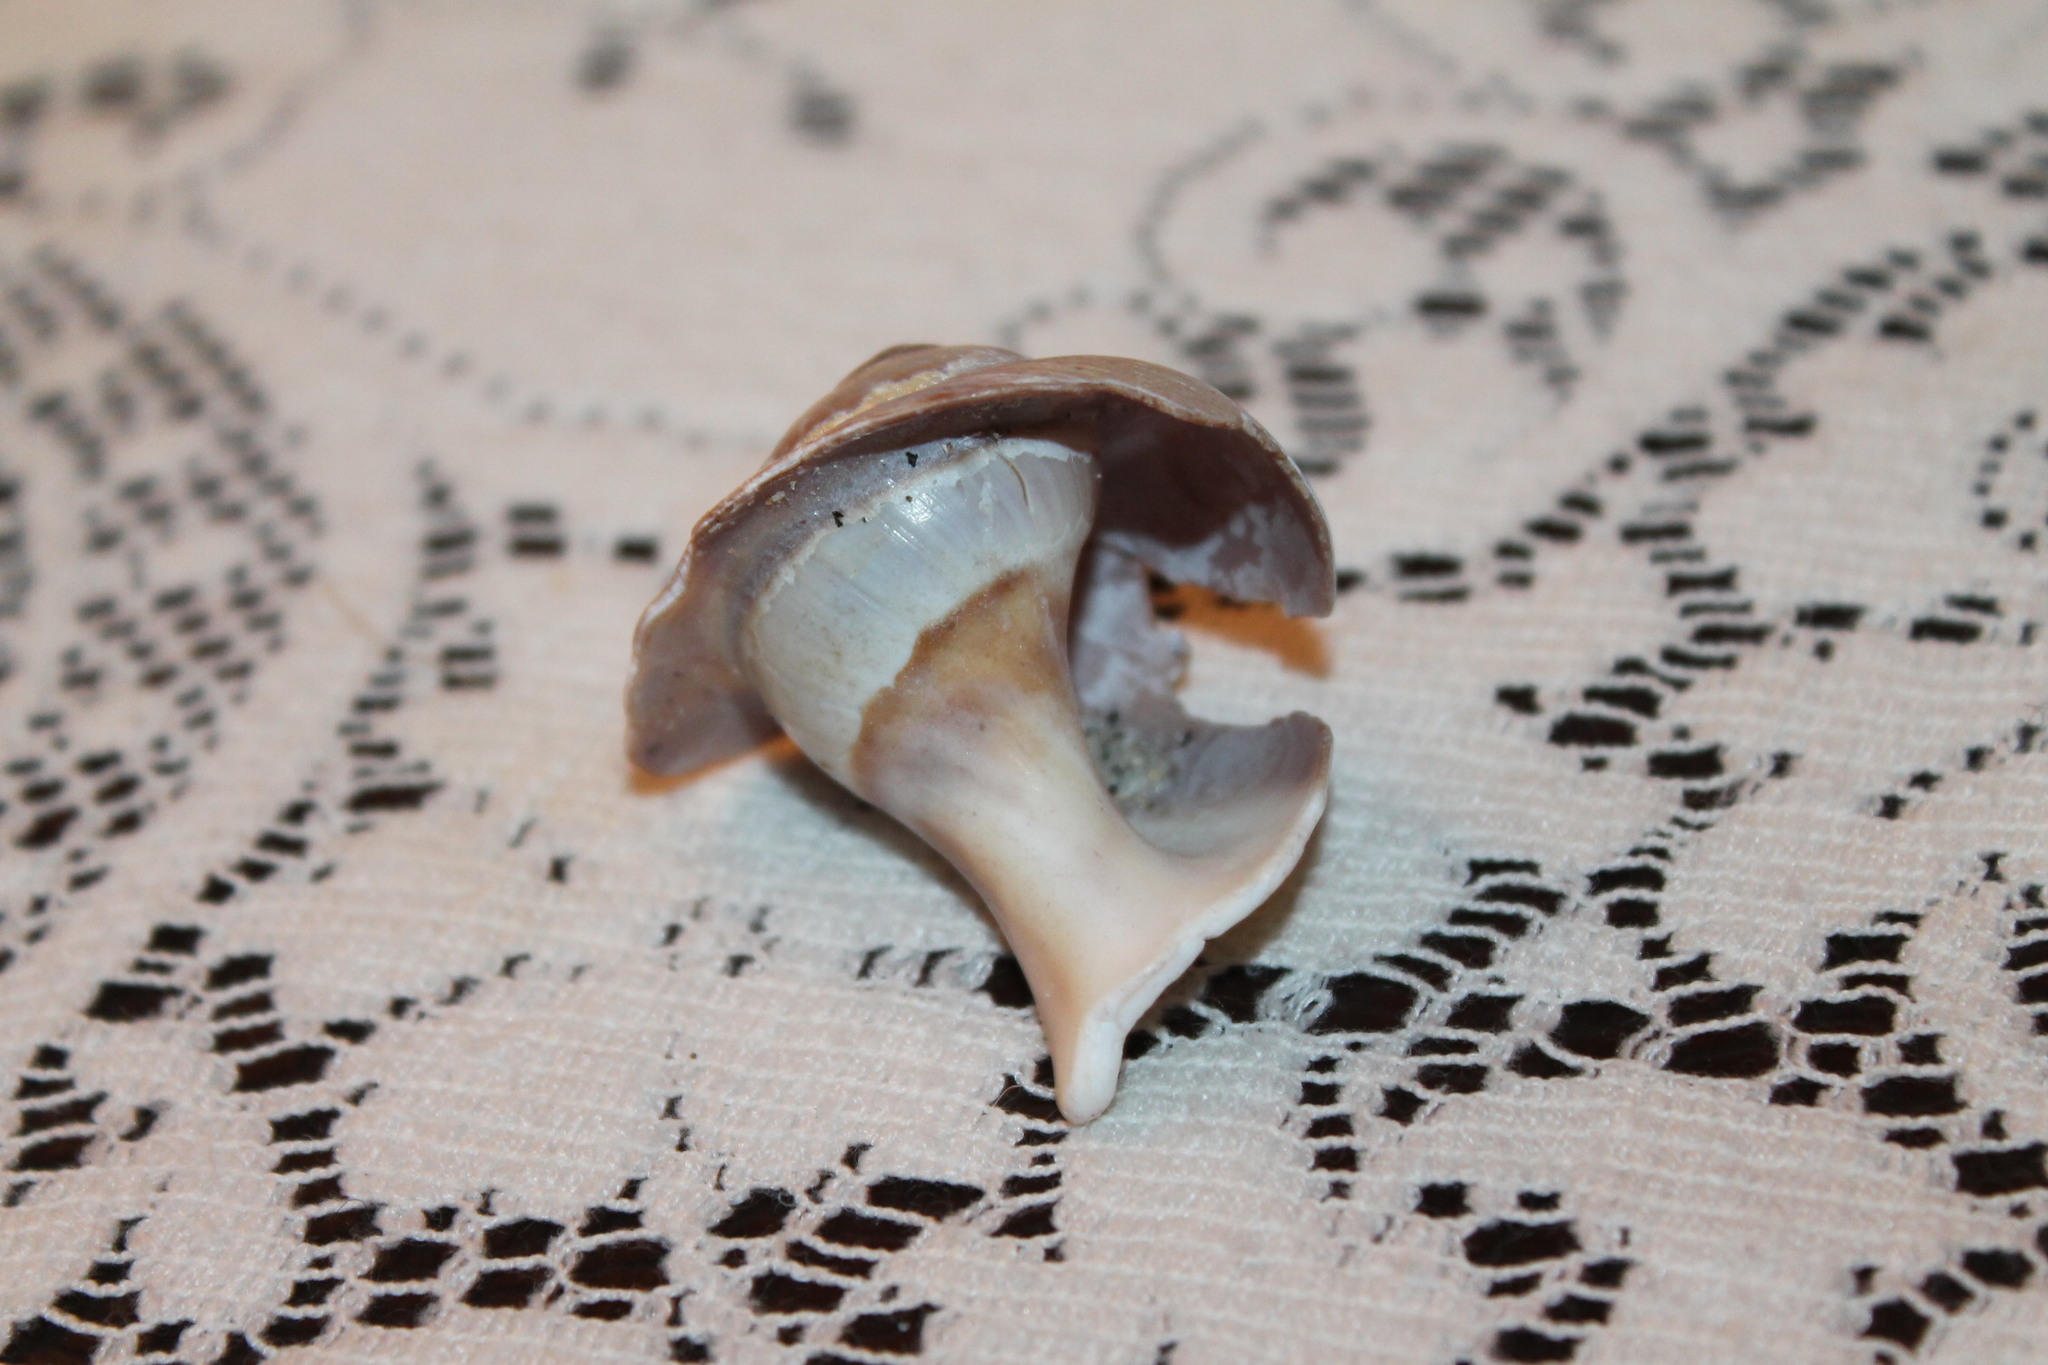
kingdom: Animalia
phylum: Mollusca
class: Gastropoda
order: Littorinimorpha
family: Naticidae
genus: Euspira
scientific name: Euspira heros
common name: Common northern moonsnail
